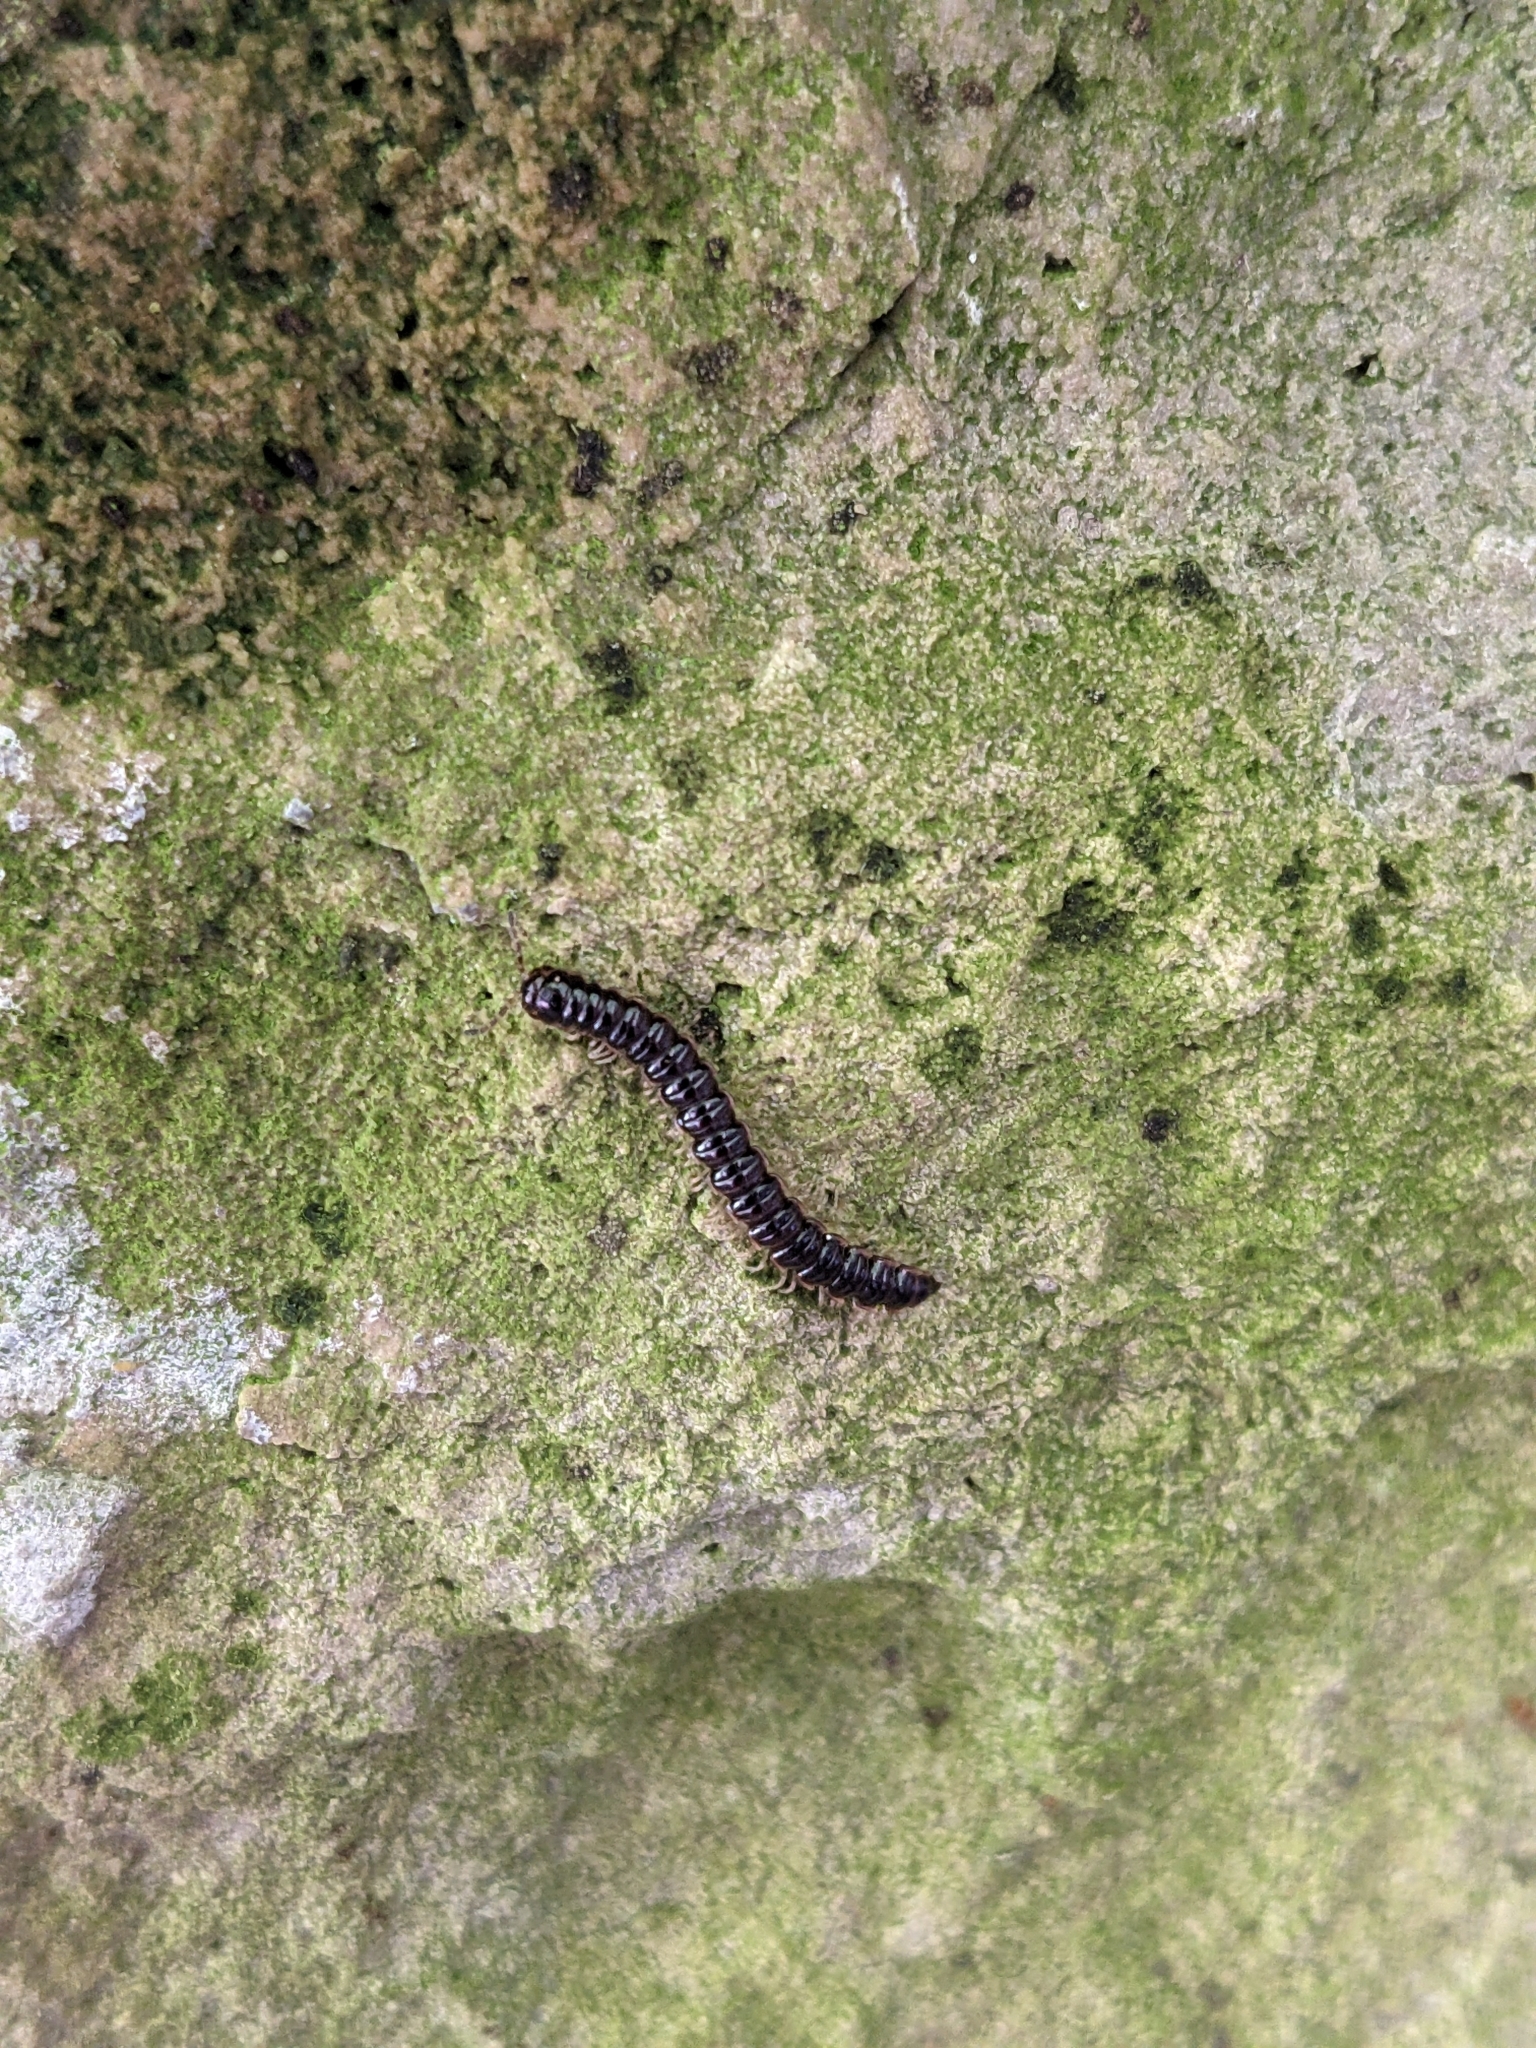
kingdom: Animalia
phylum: Arthropoda
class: Diplopoda
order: Polydesmida
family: Paradoxosomatidae
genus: Oxidus
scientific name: Oxidus gracilis
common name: Greenhouse millipede
